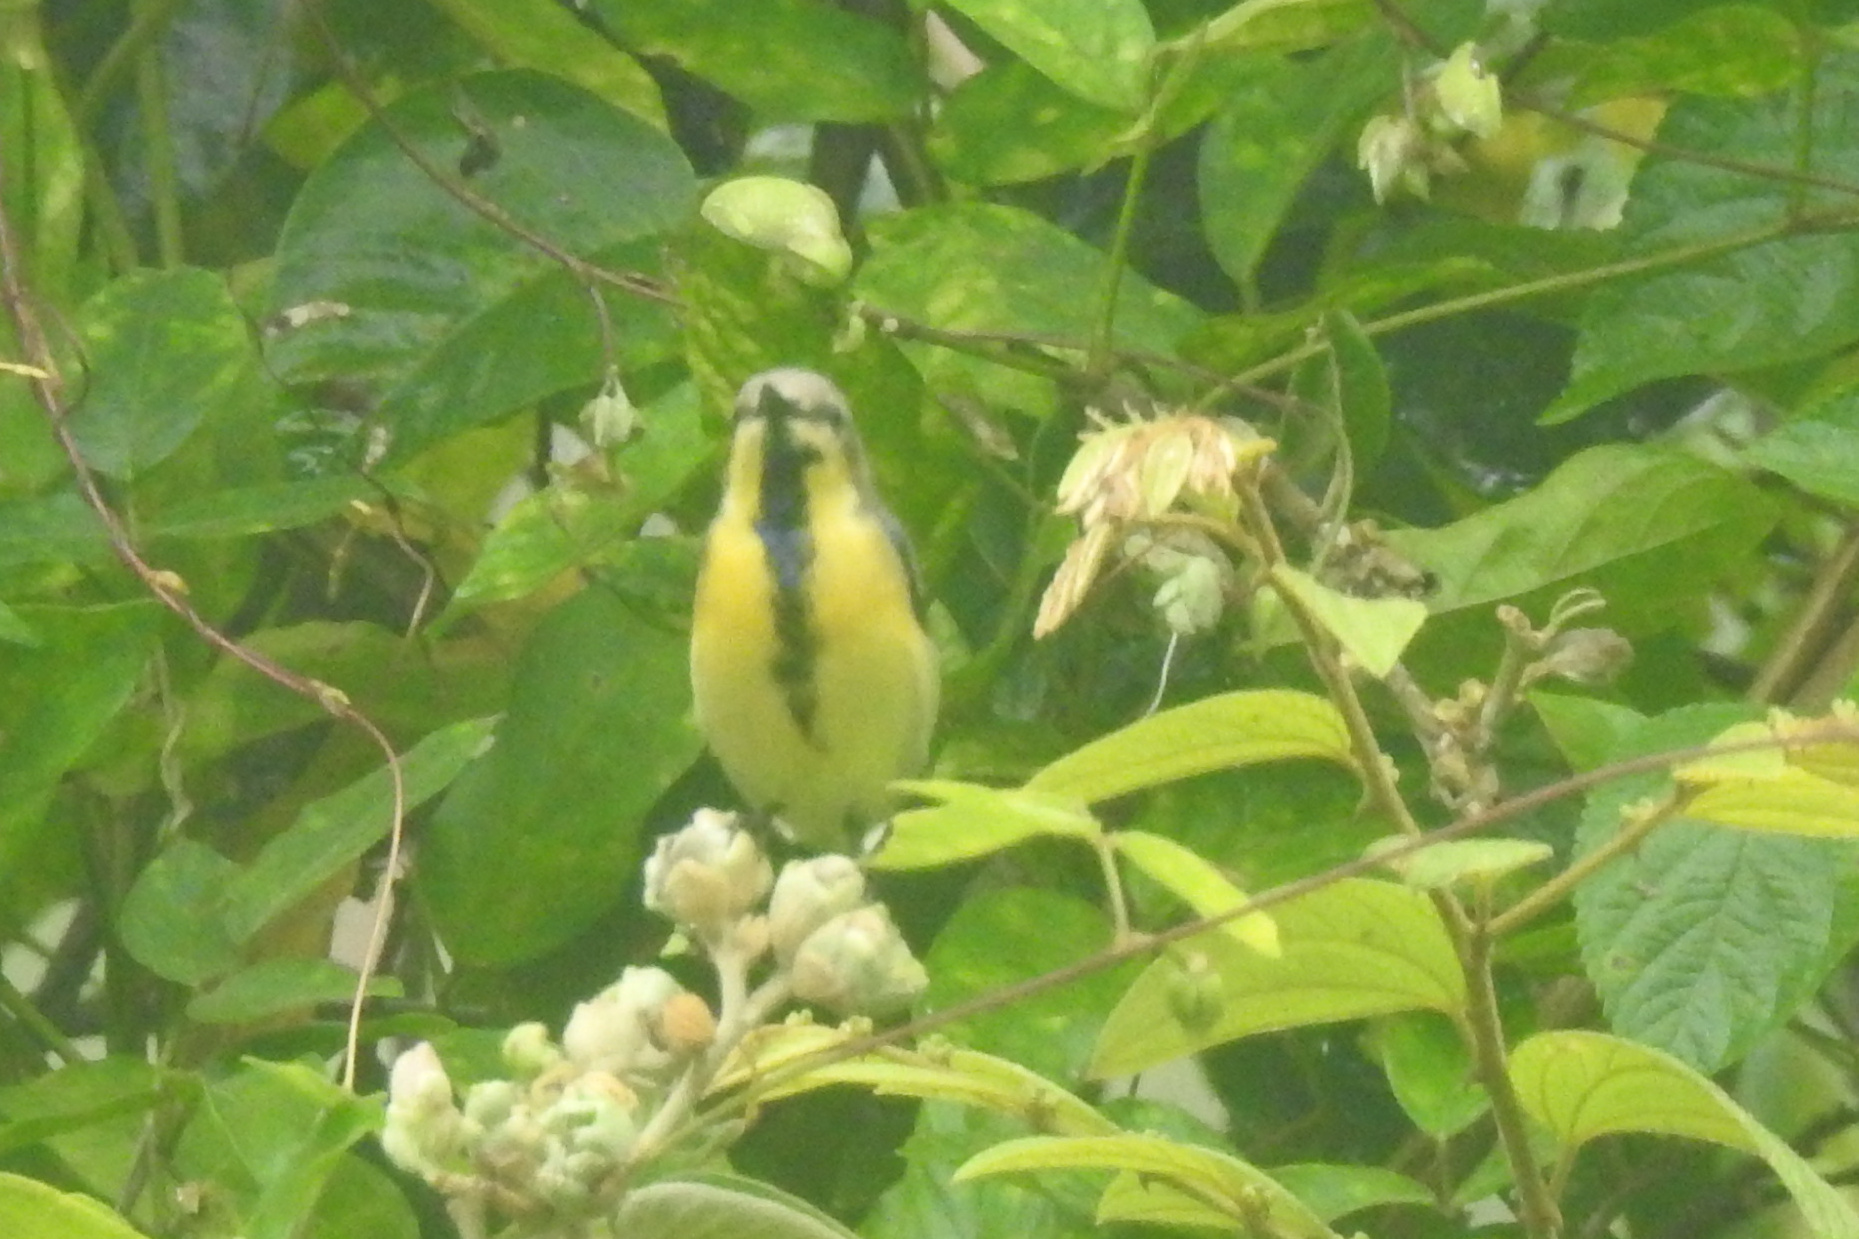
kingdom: Animalia
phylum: Chordata
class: Aves
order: Passeriformes
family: Nectariniidae
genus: Cinnyris
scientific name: Cinnyris asiaticus
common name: Purple sunbird
